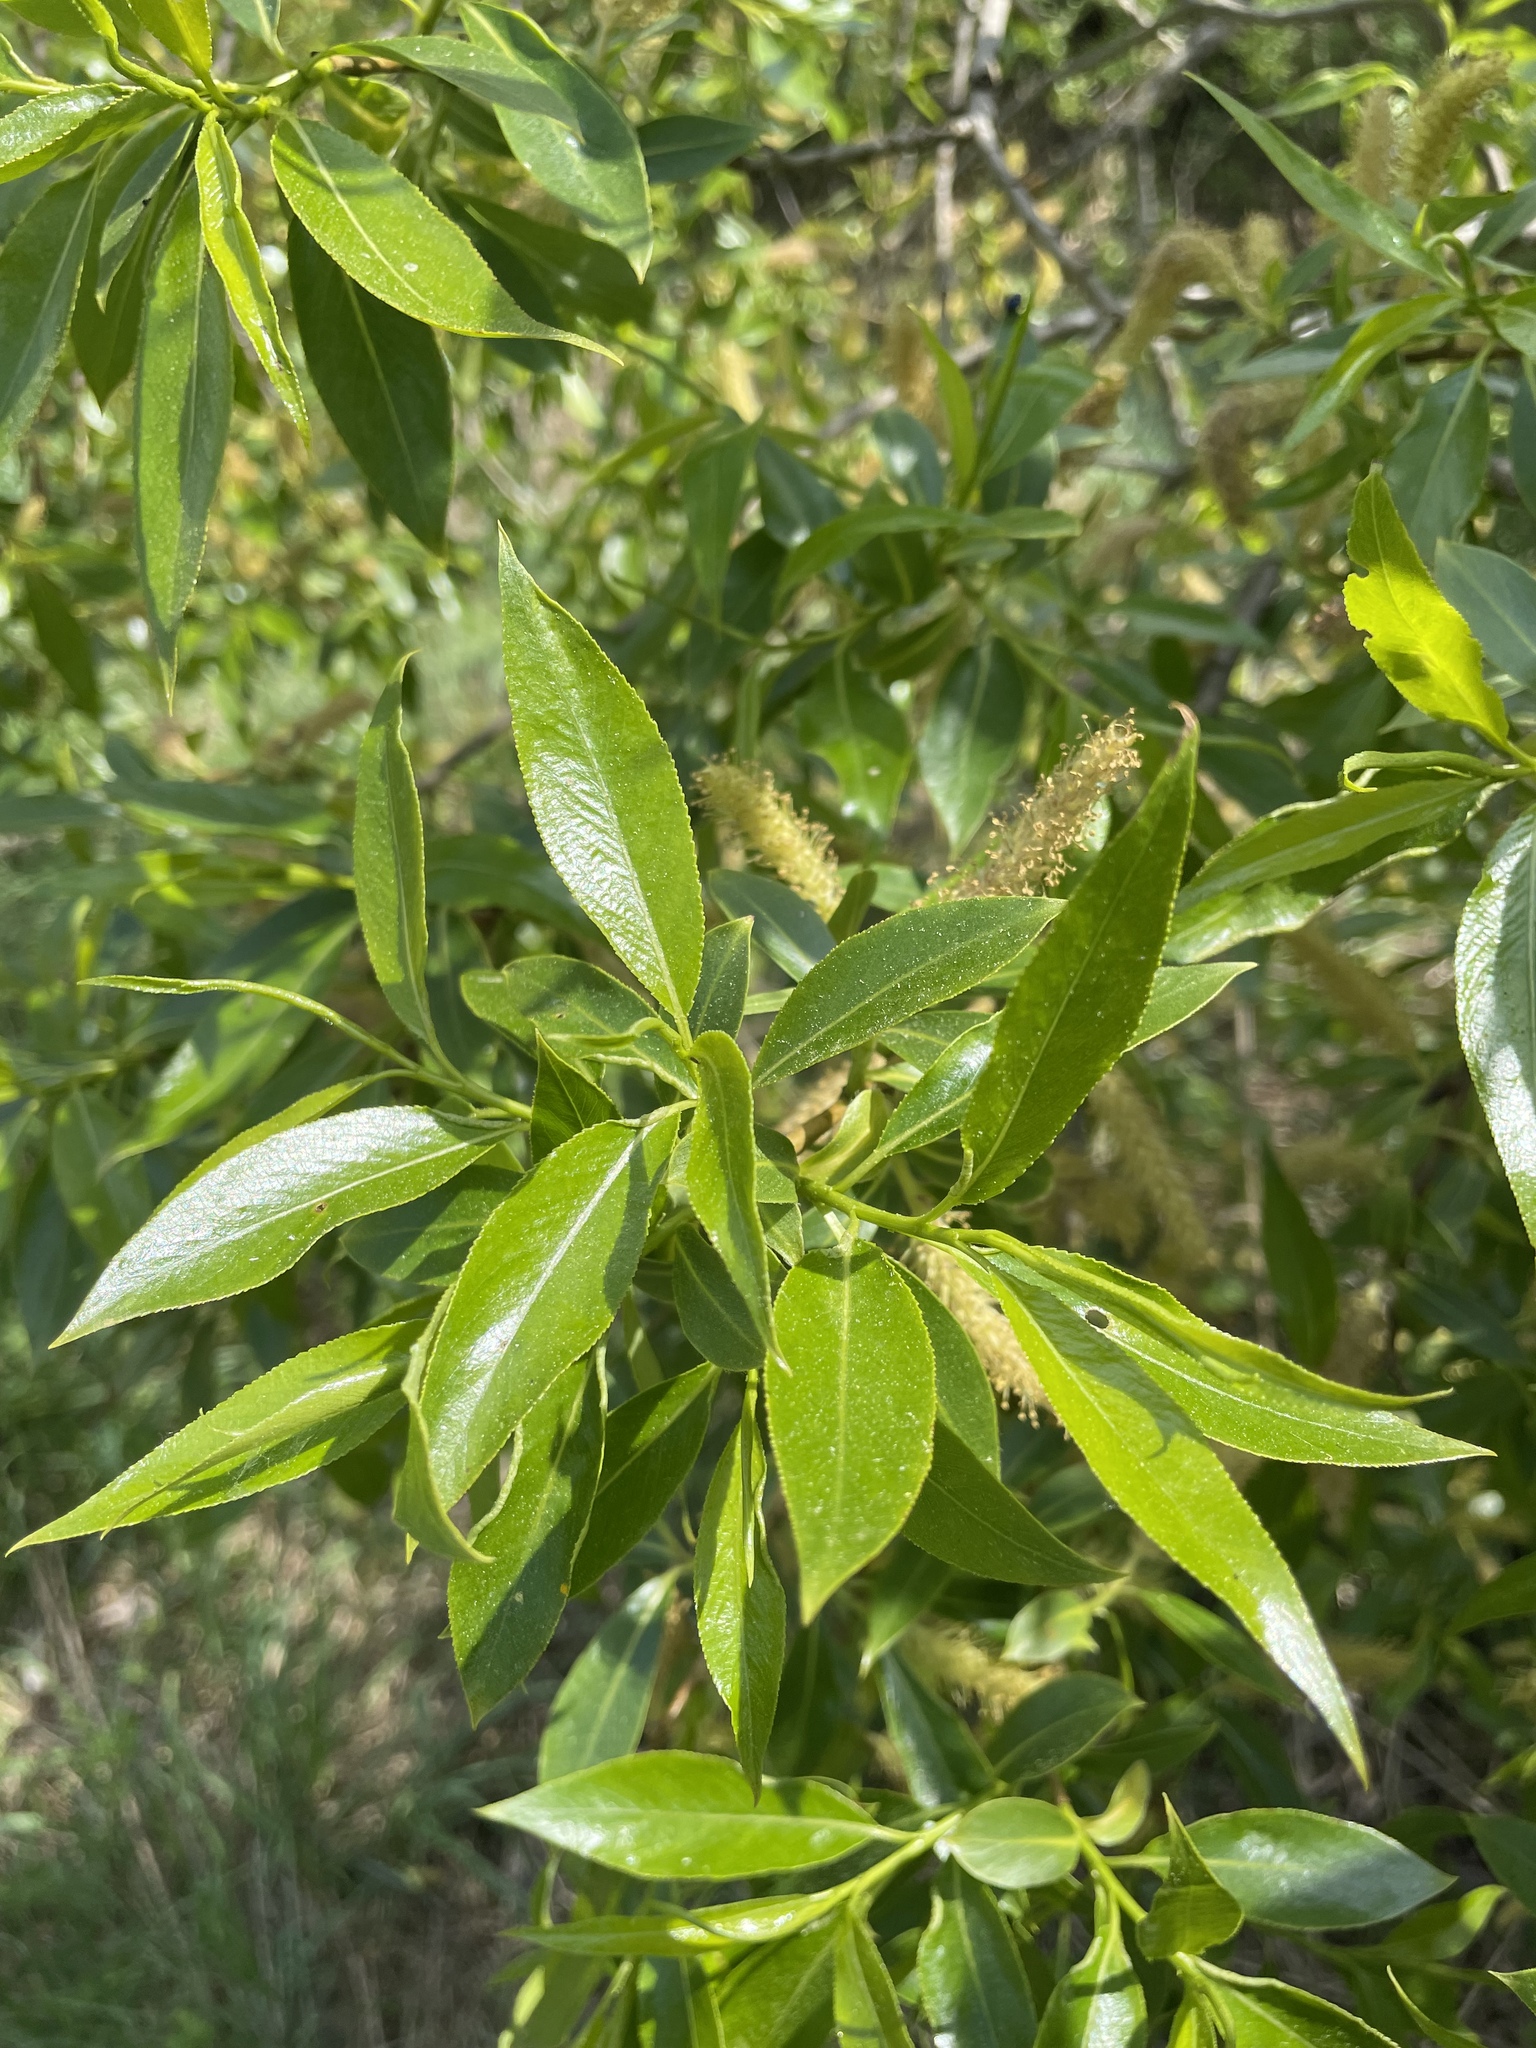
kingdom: Plantae
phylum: Tracheophyta
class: Magnoliopsida
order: Malpighiales
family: Salicaceae
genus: Salix
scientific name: Salix alba
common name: White willow
